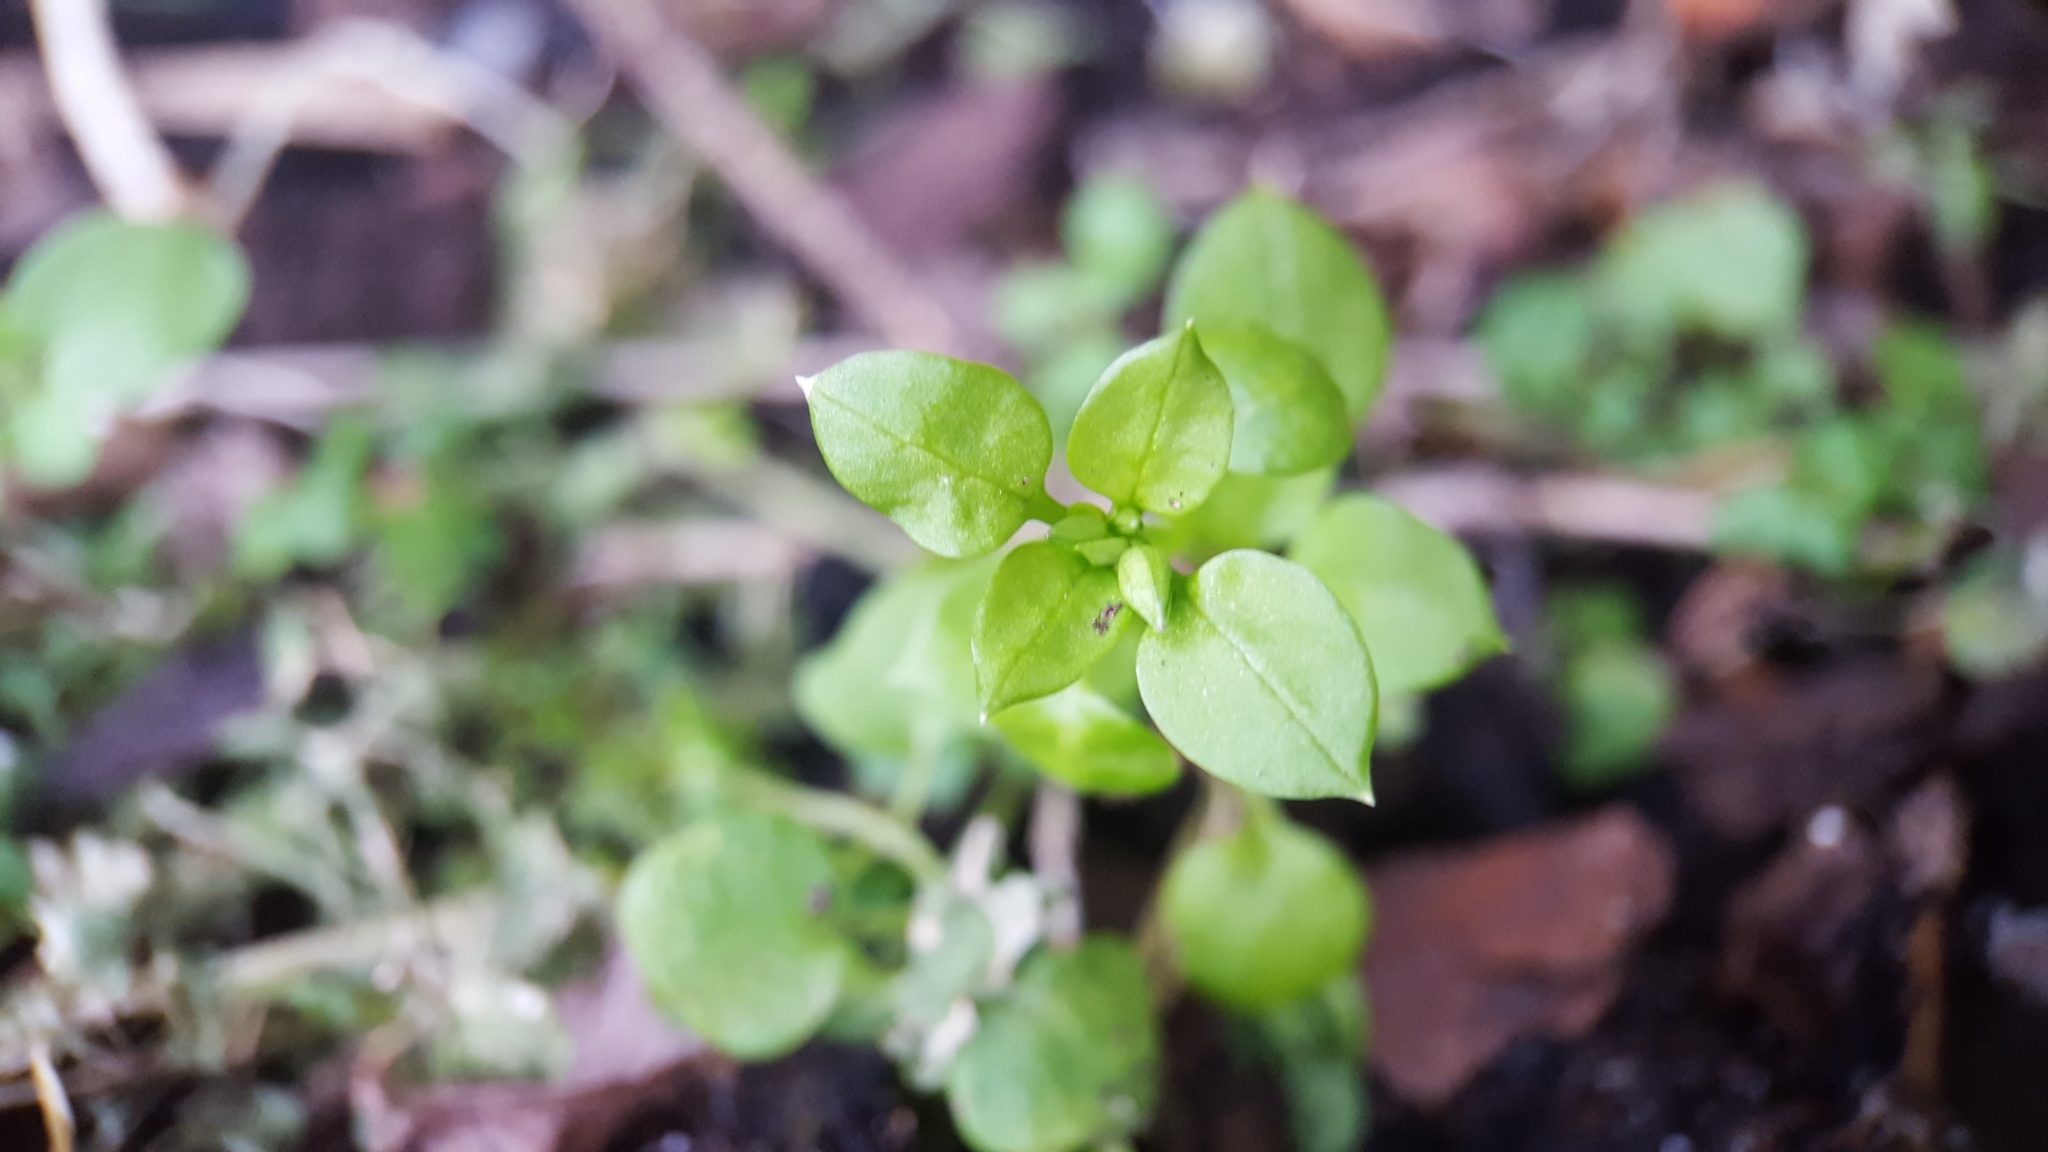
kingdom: Plantae
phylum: Tracheophyta
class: Magnoliopsida
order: Caryophyllales
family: Caryophyllaceae
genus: Stellaria
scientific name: Stellaria media
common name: Common chickweed
